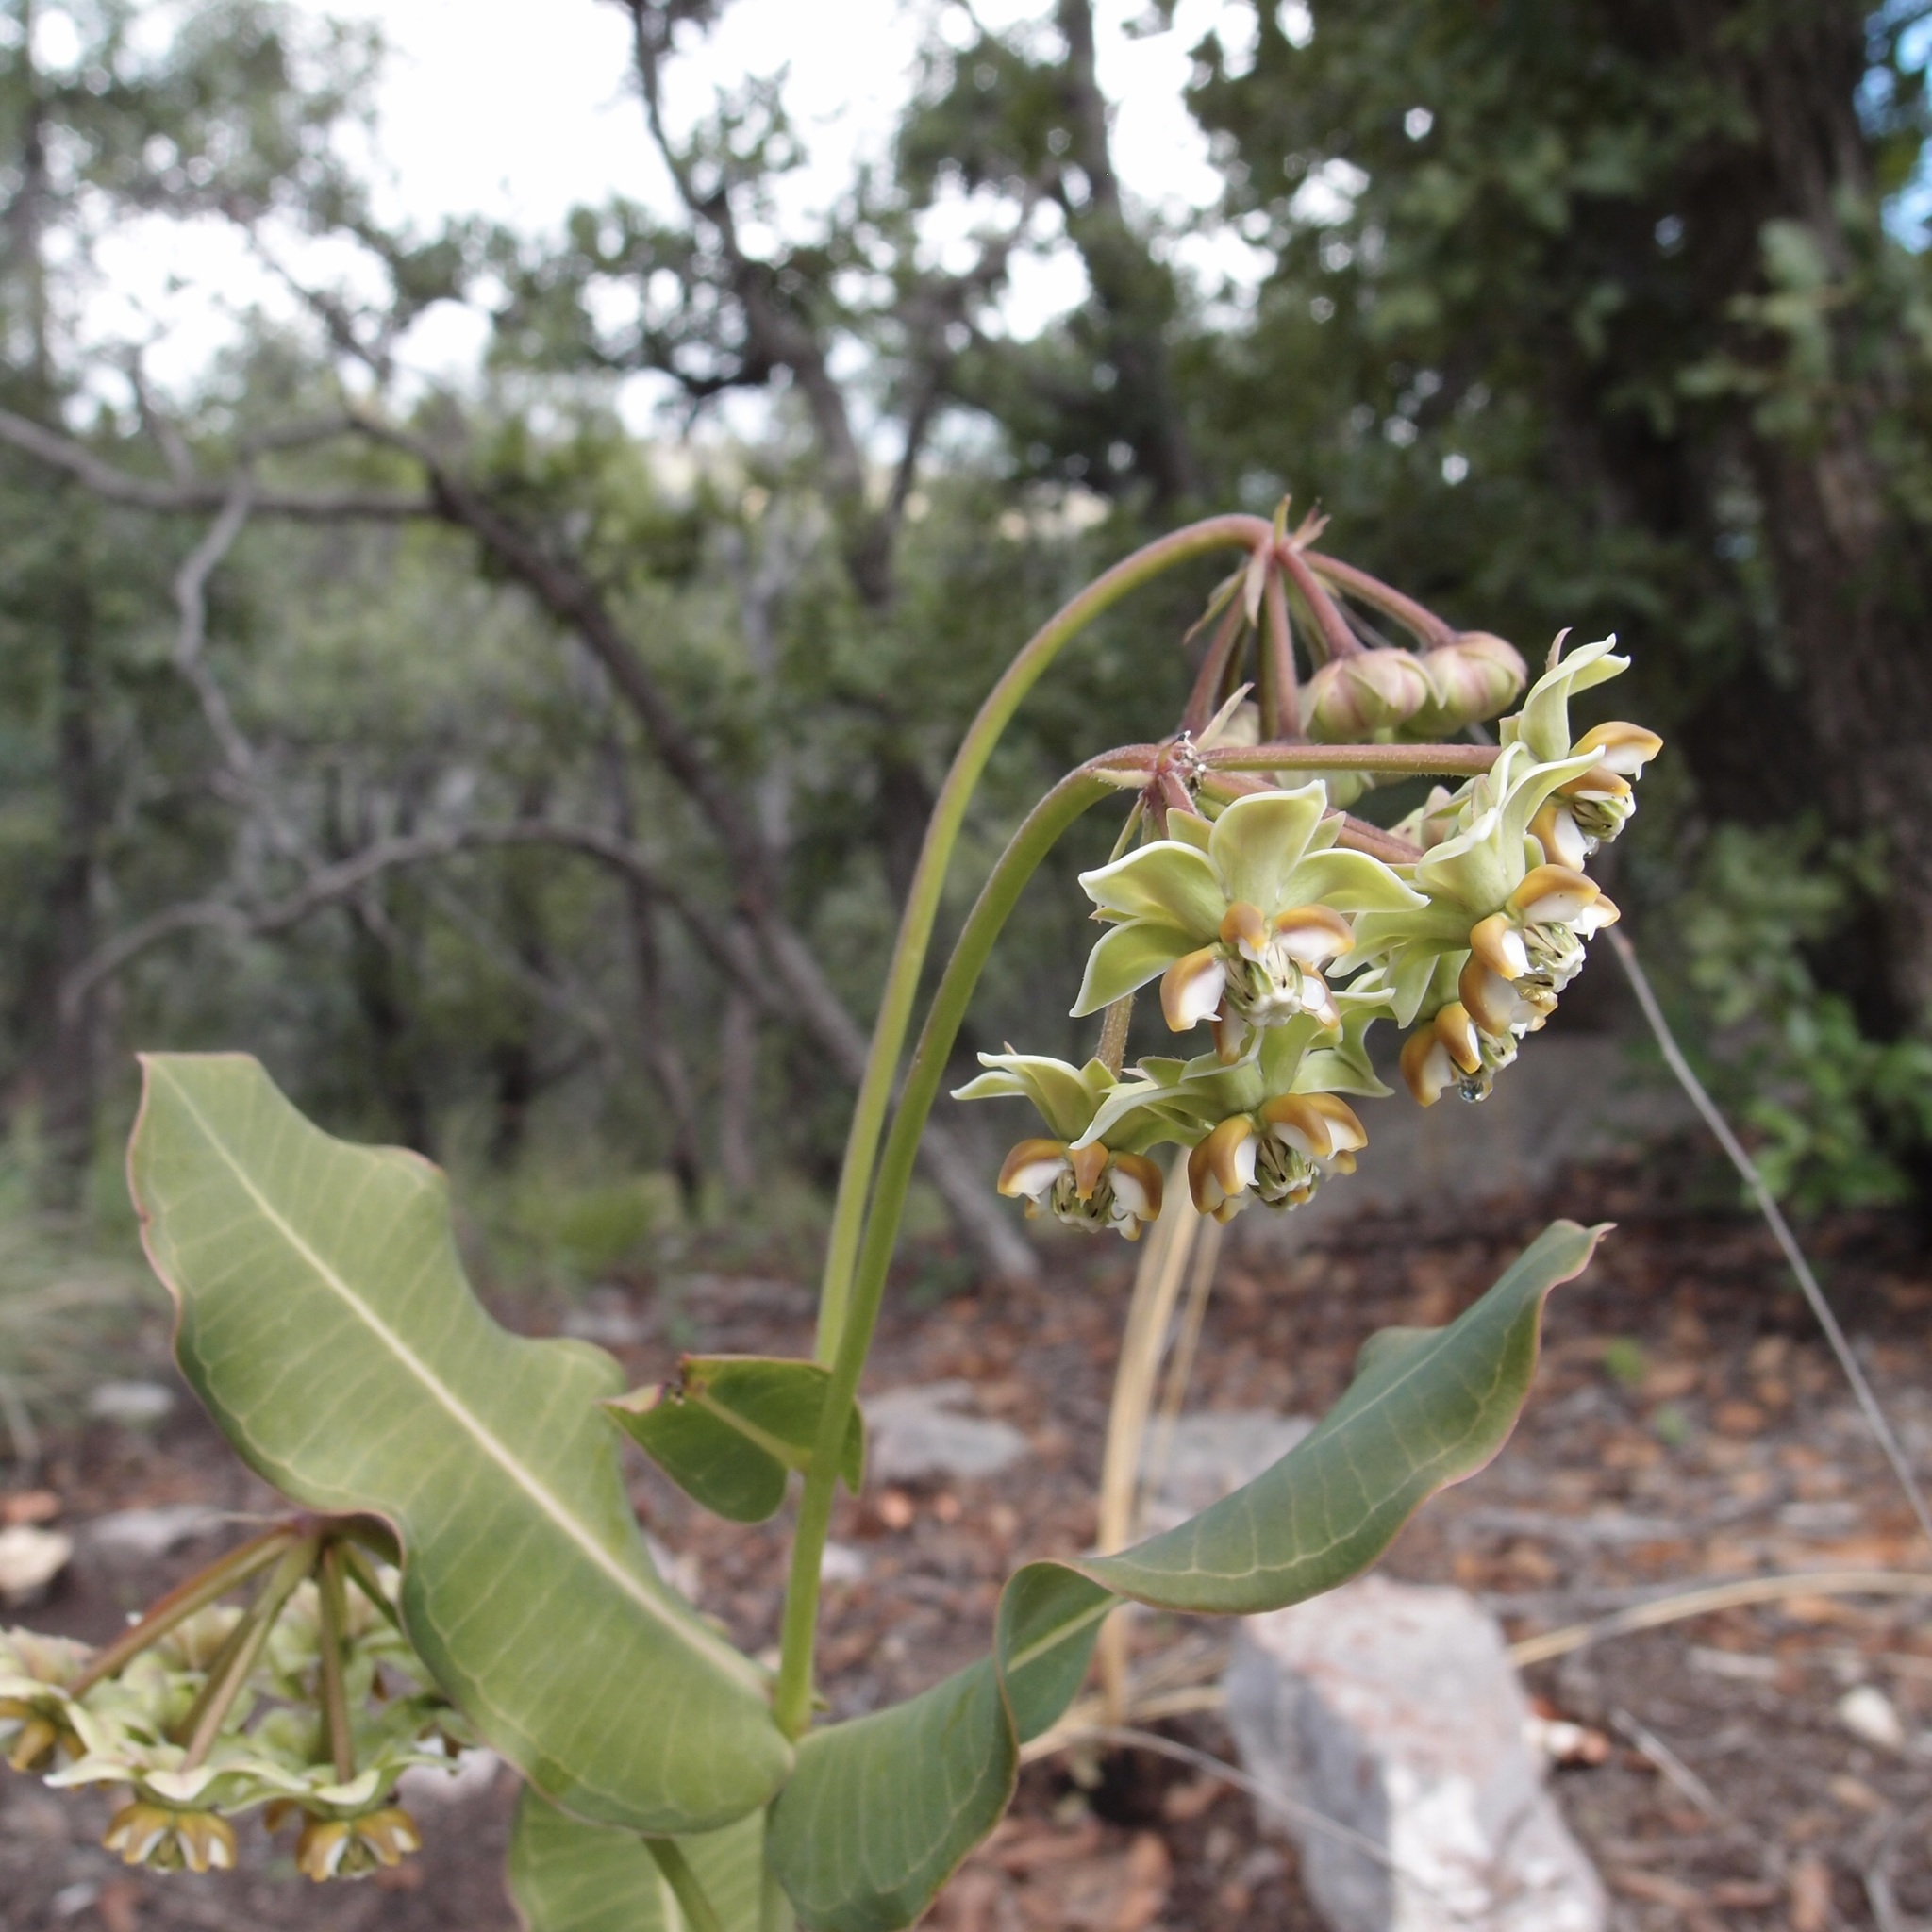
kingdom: Plantae
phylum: Tracheophyta
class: Magnoliopsida
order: Gentianales
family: Apocynaceae
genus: Asclepias
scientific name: Asclepias elata
